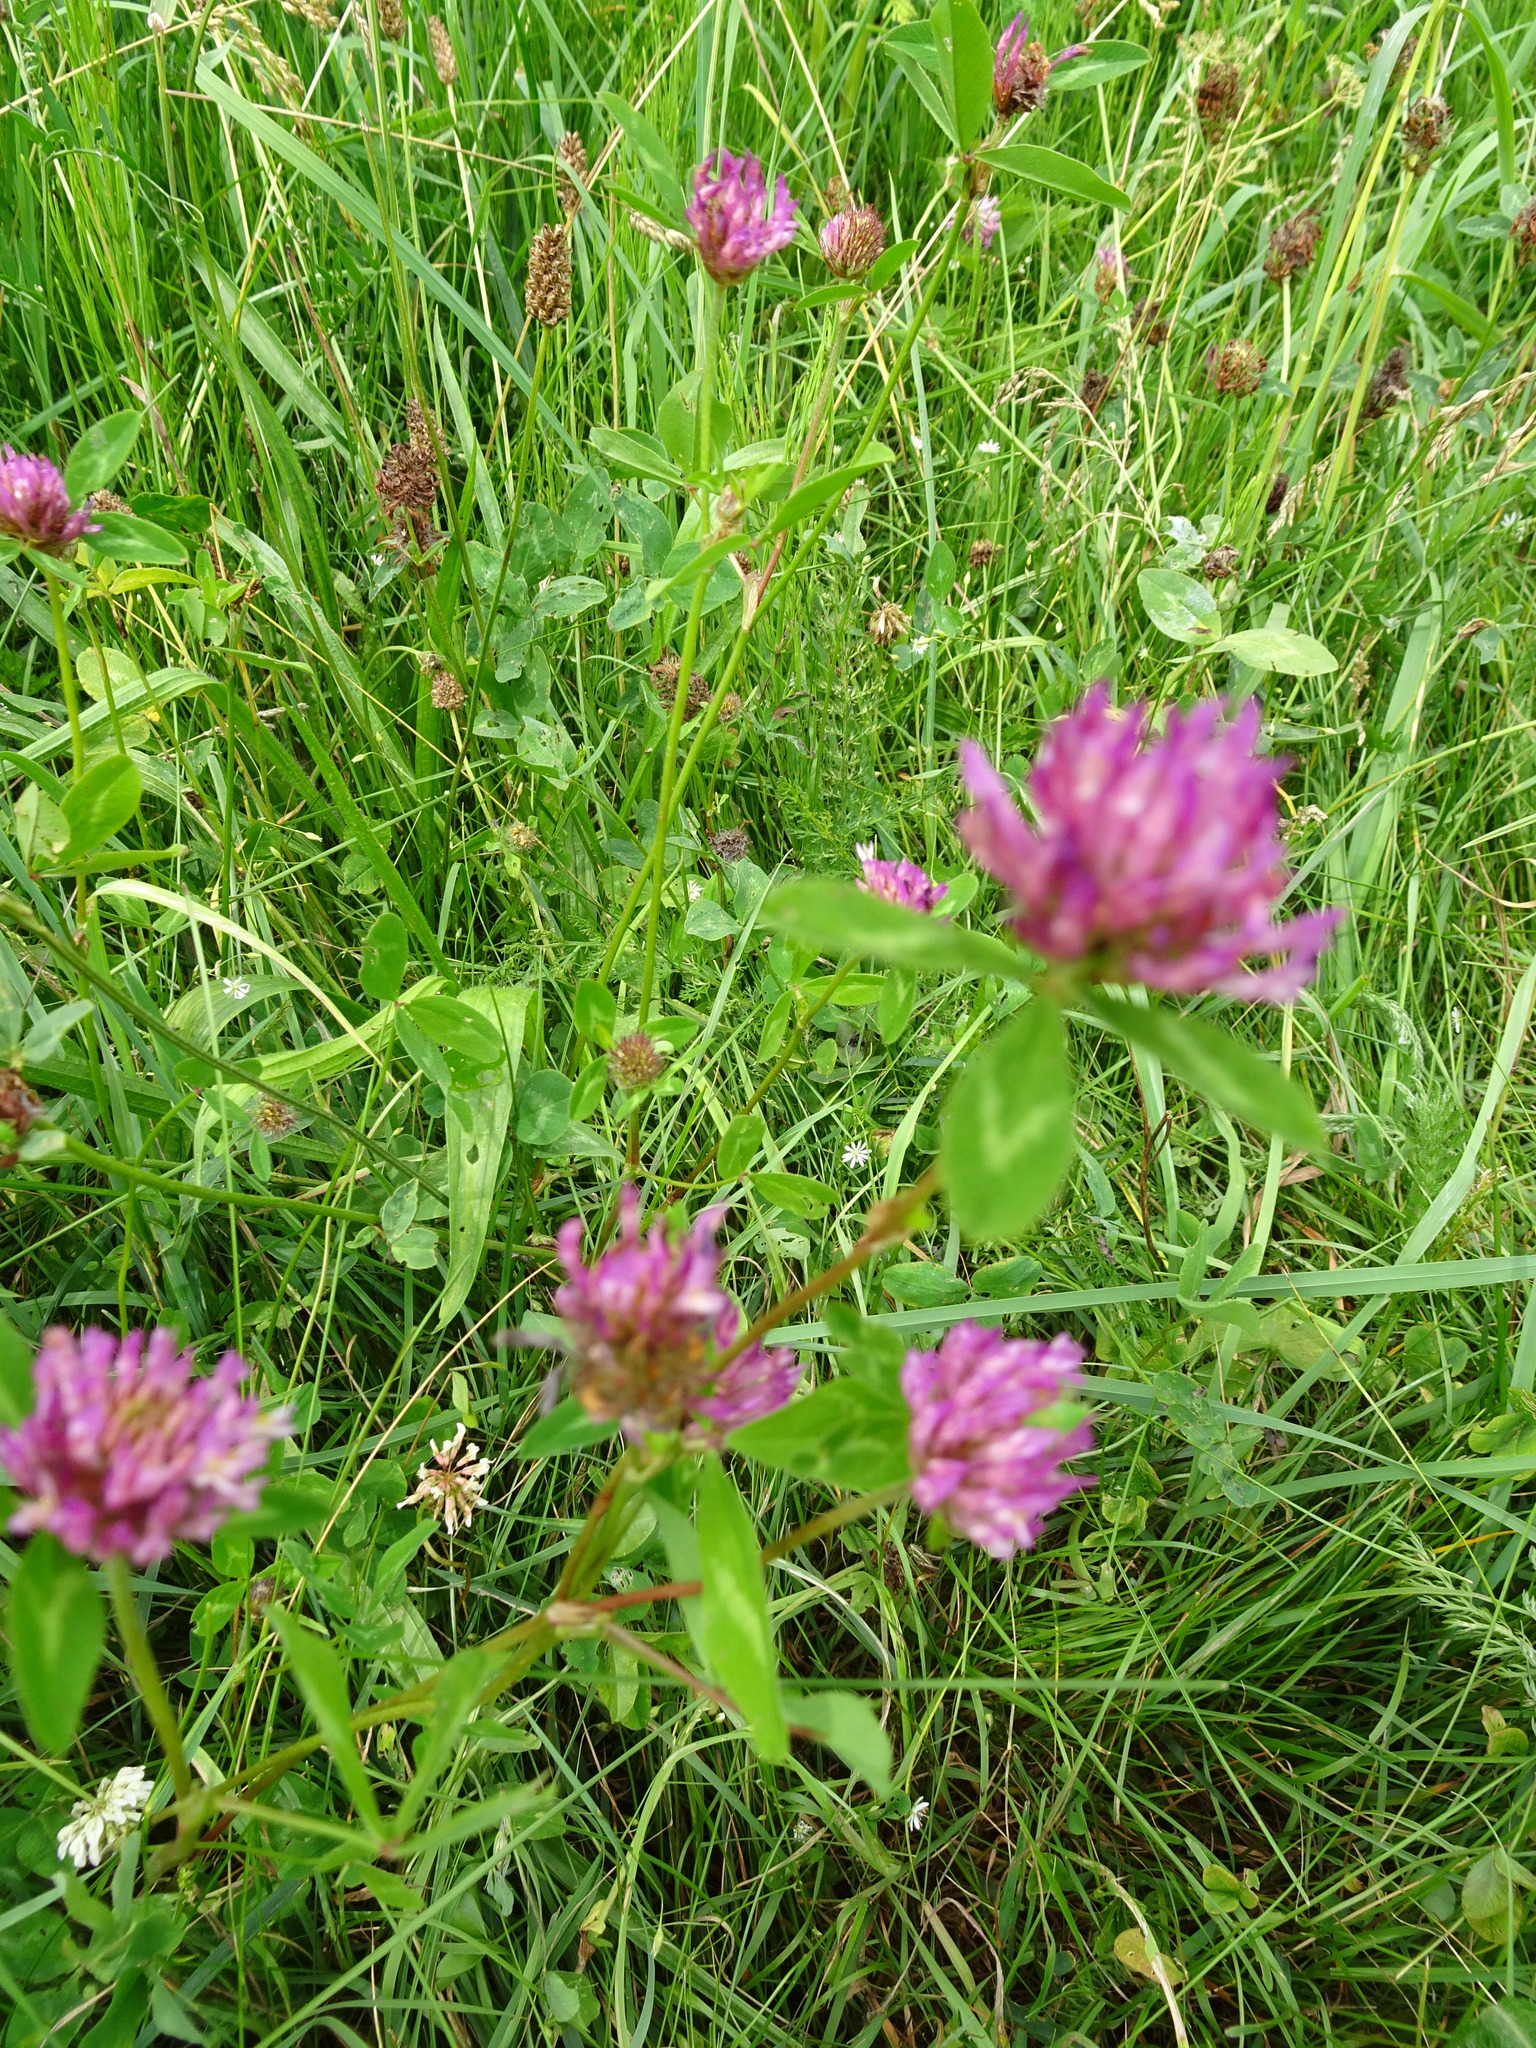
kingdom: Plantae
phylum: Tracheophyta
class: Magnoliopsida
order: Fabales
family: Fabaceae
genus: Trifolium
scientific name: Trifolium pratense
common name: Red clover
